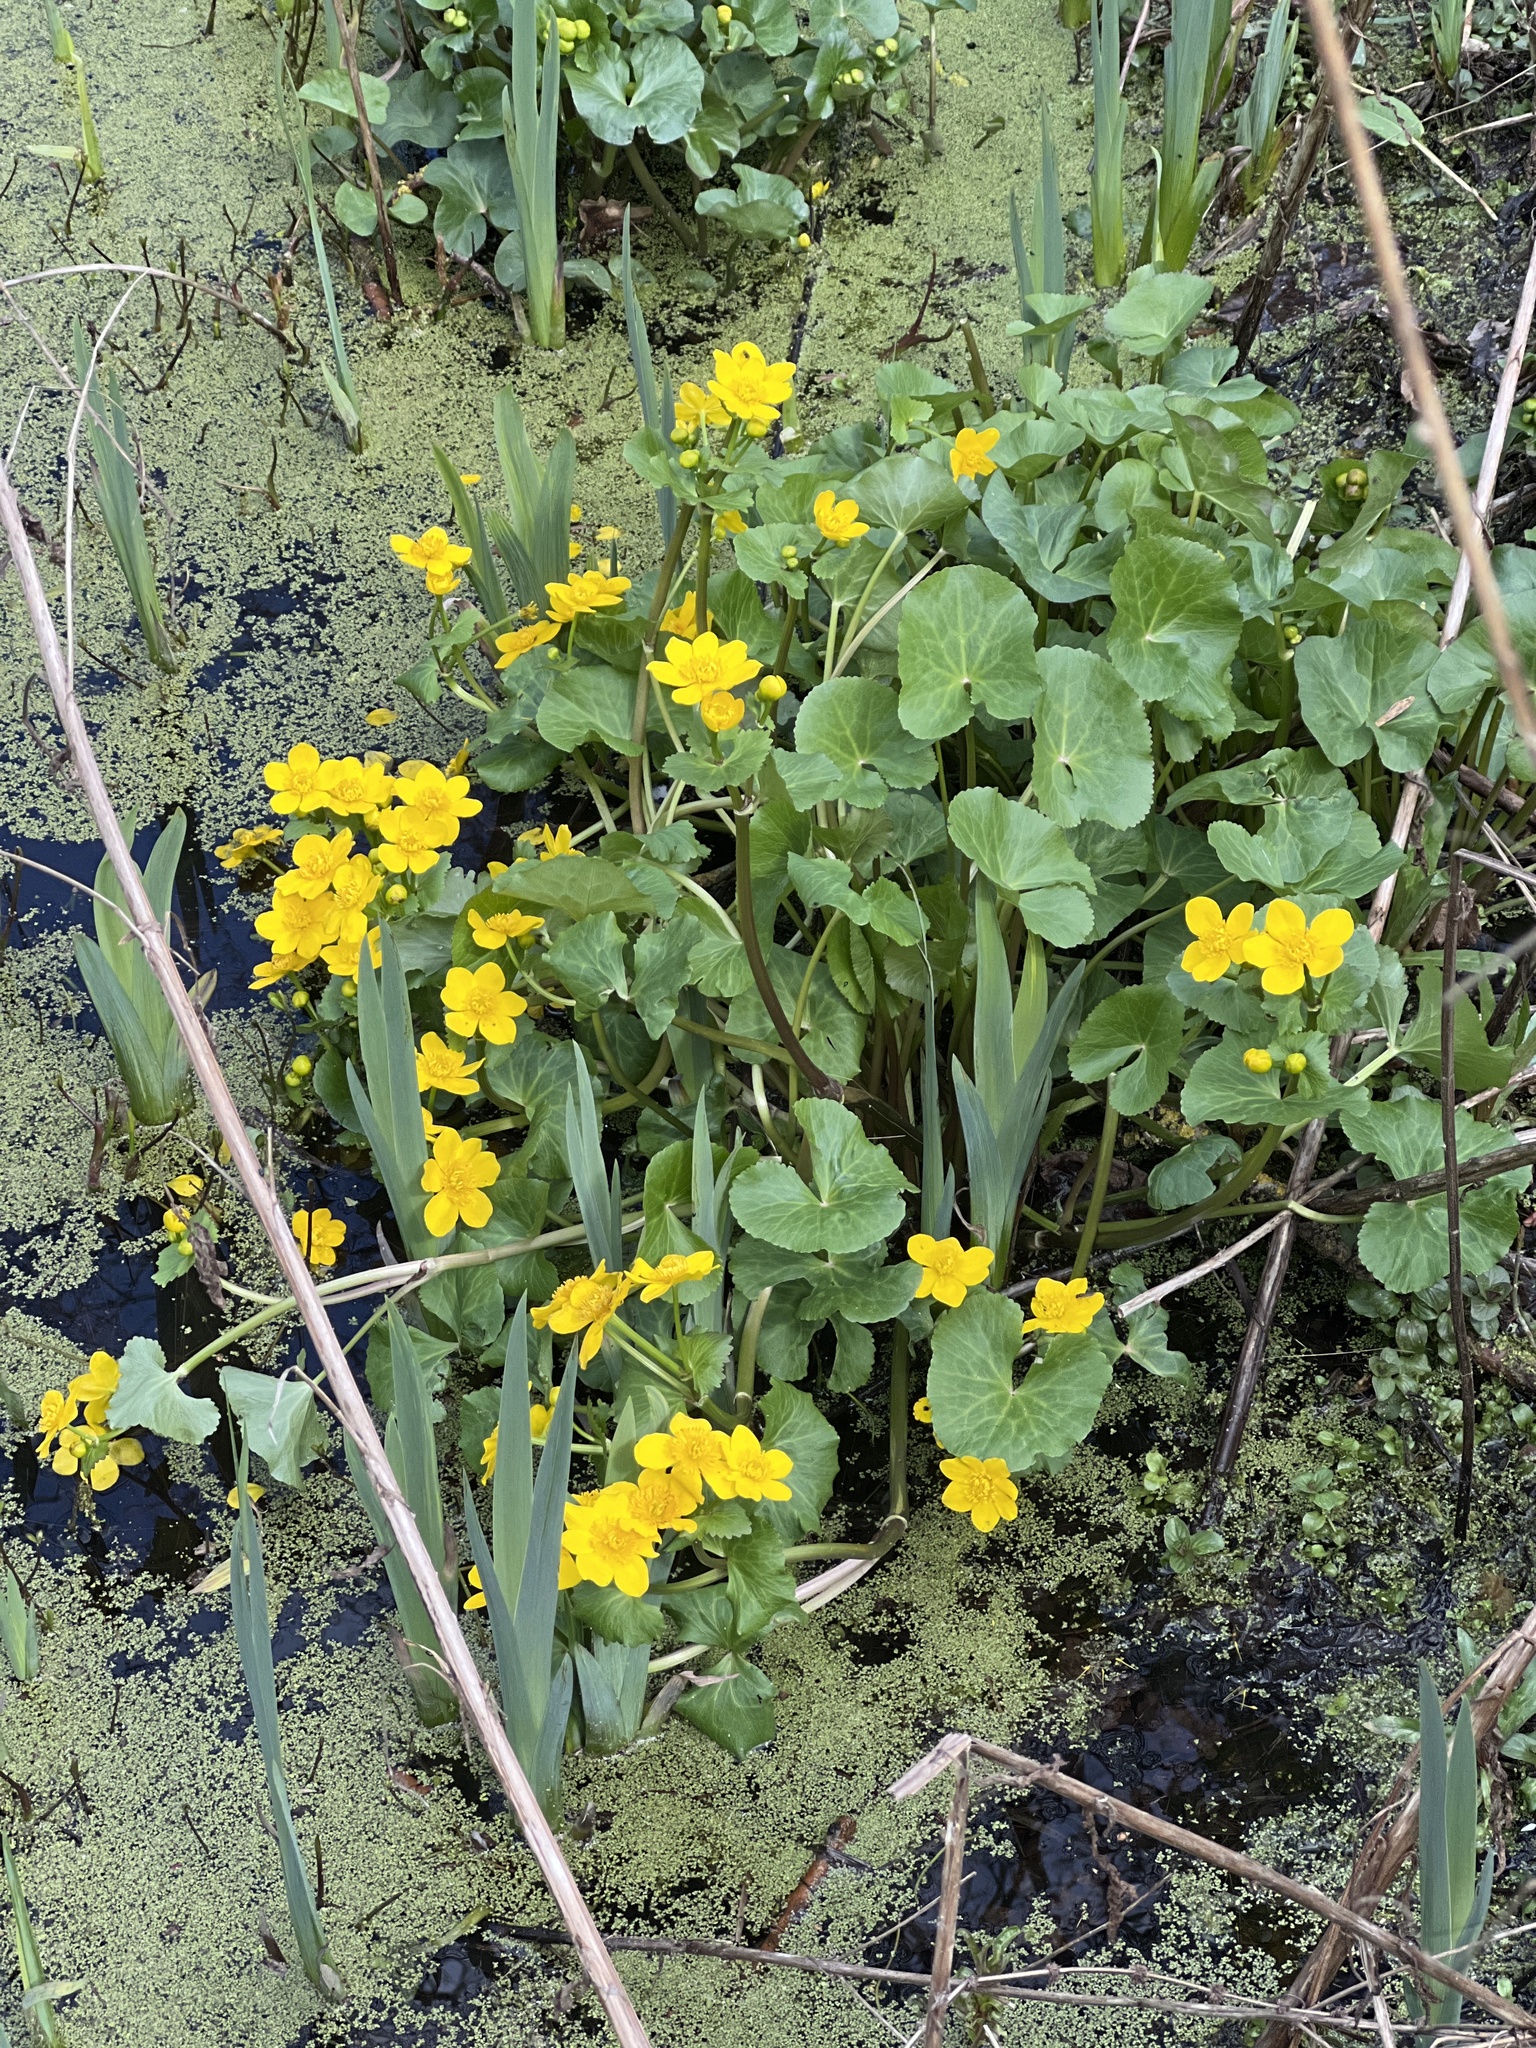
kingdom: Plantae
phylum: Tracheophyta
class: Magnoliopsida
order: Ranunculales
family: Ranunculaceae
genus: Caltha
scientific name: Caltha palustris
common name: Marsh marigold
